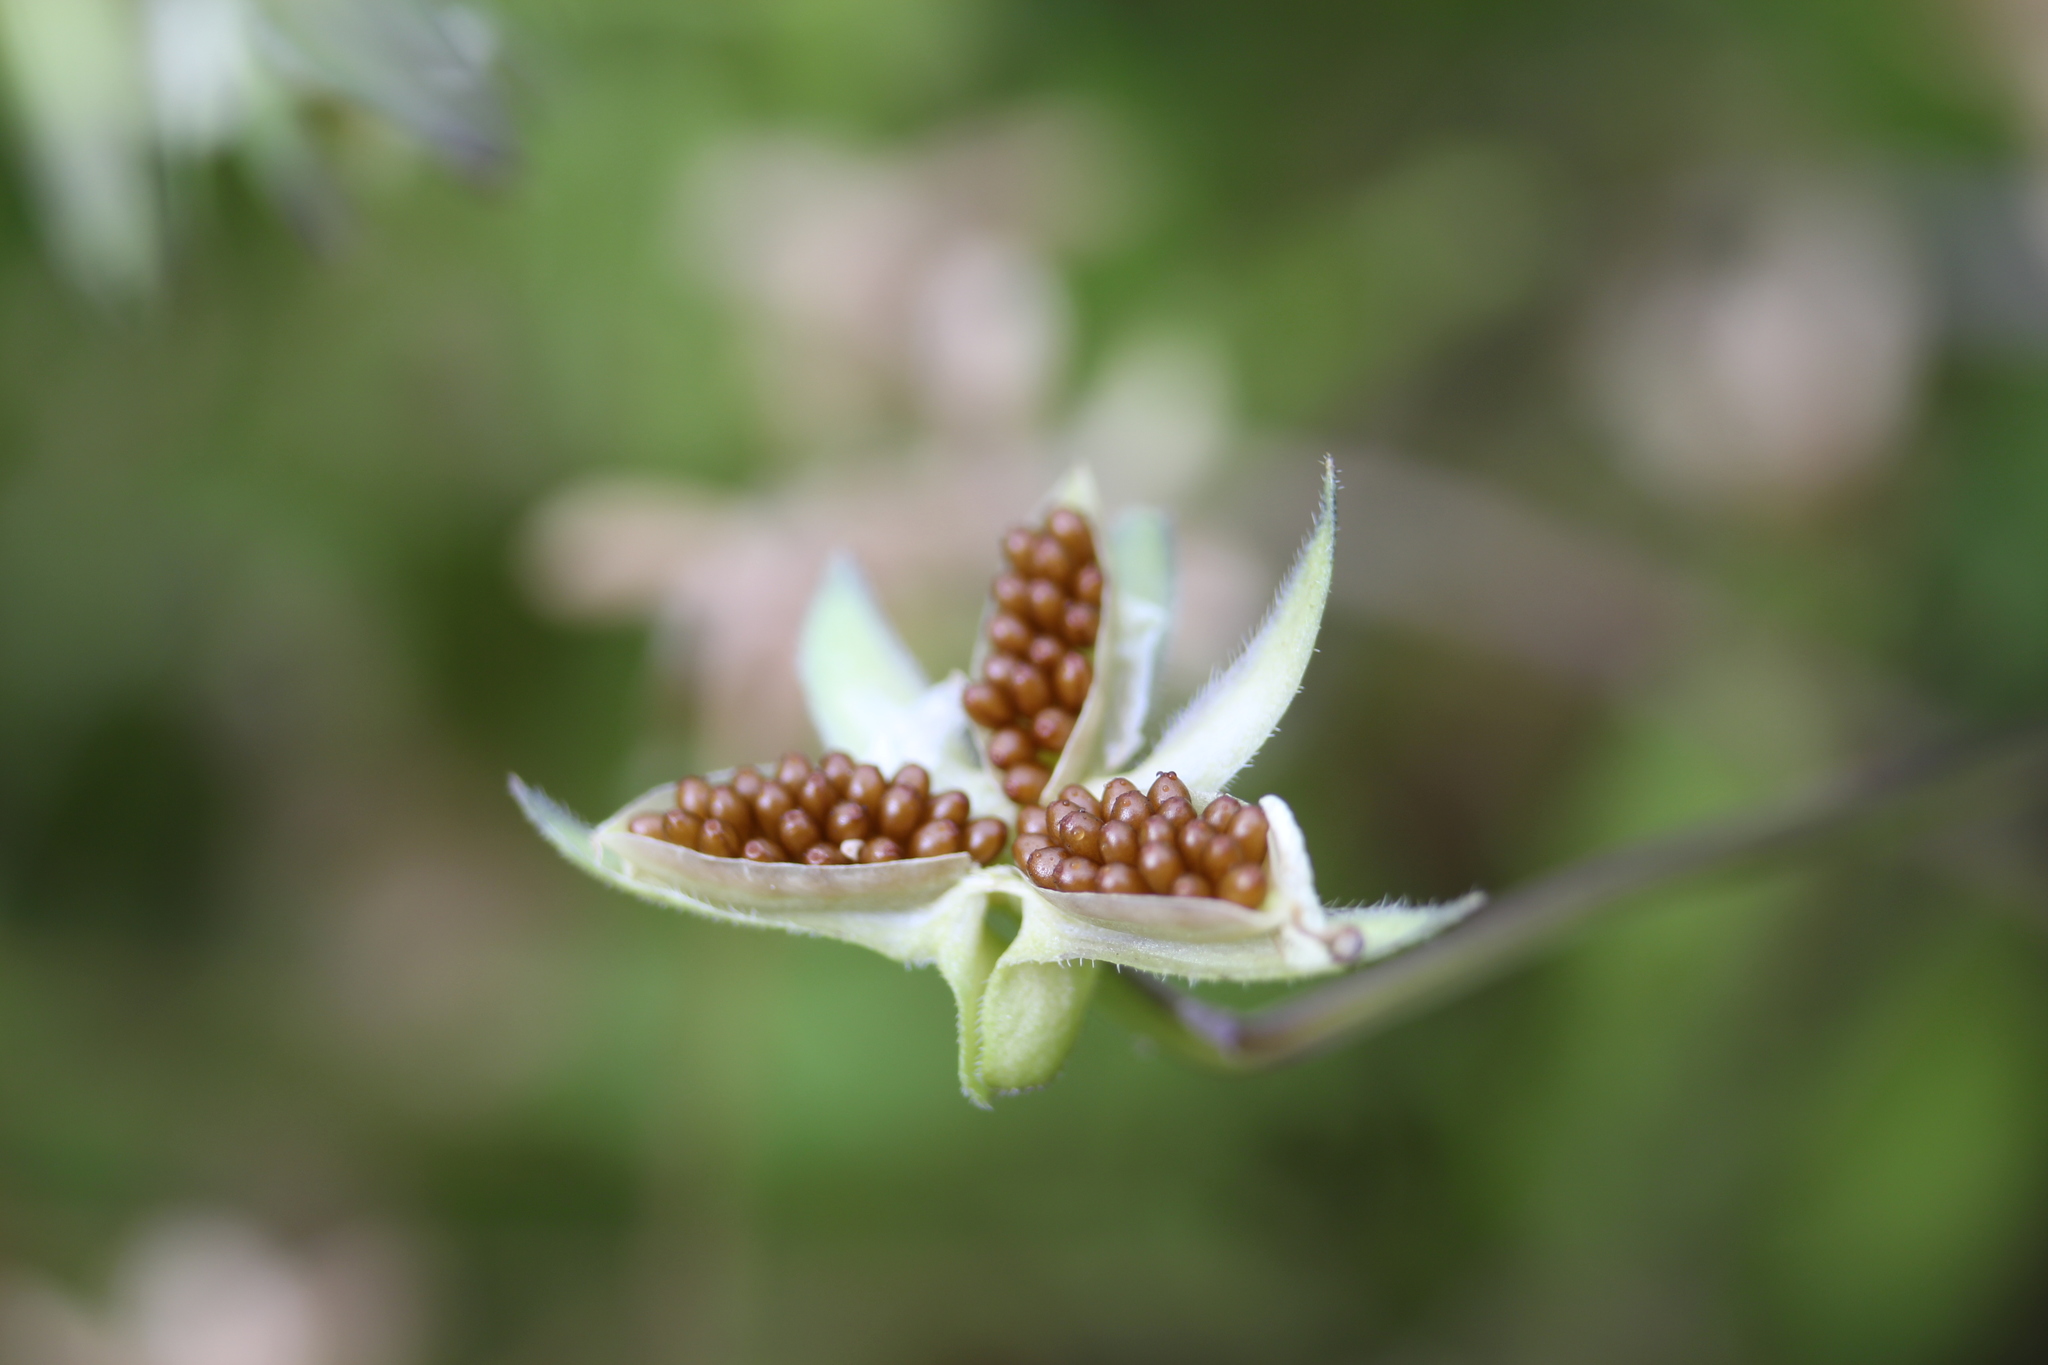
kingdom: Plantae
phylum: Tracheophyta
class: Magnoliopsida
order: Malpighiales
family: Violaceae
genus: Viola
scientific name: Viola arvensis
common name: Field pansy
